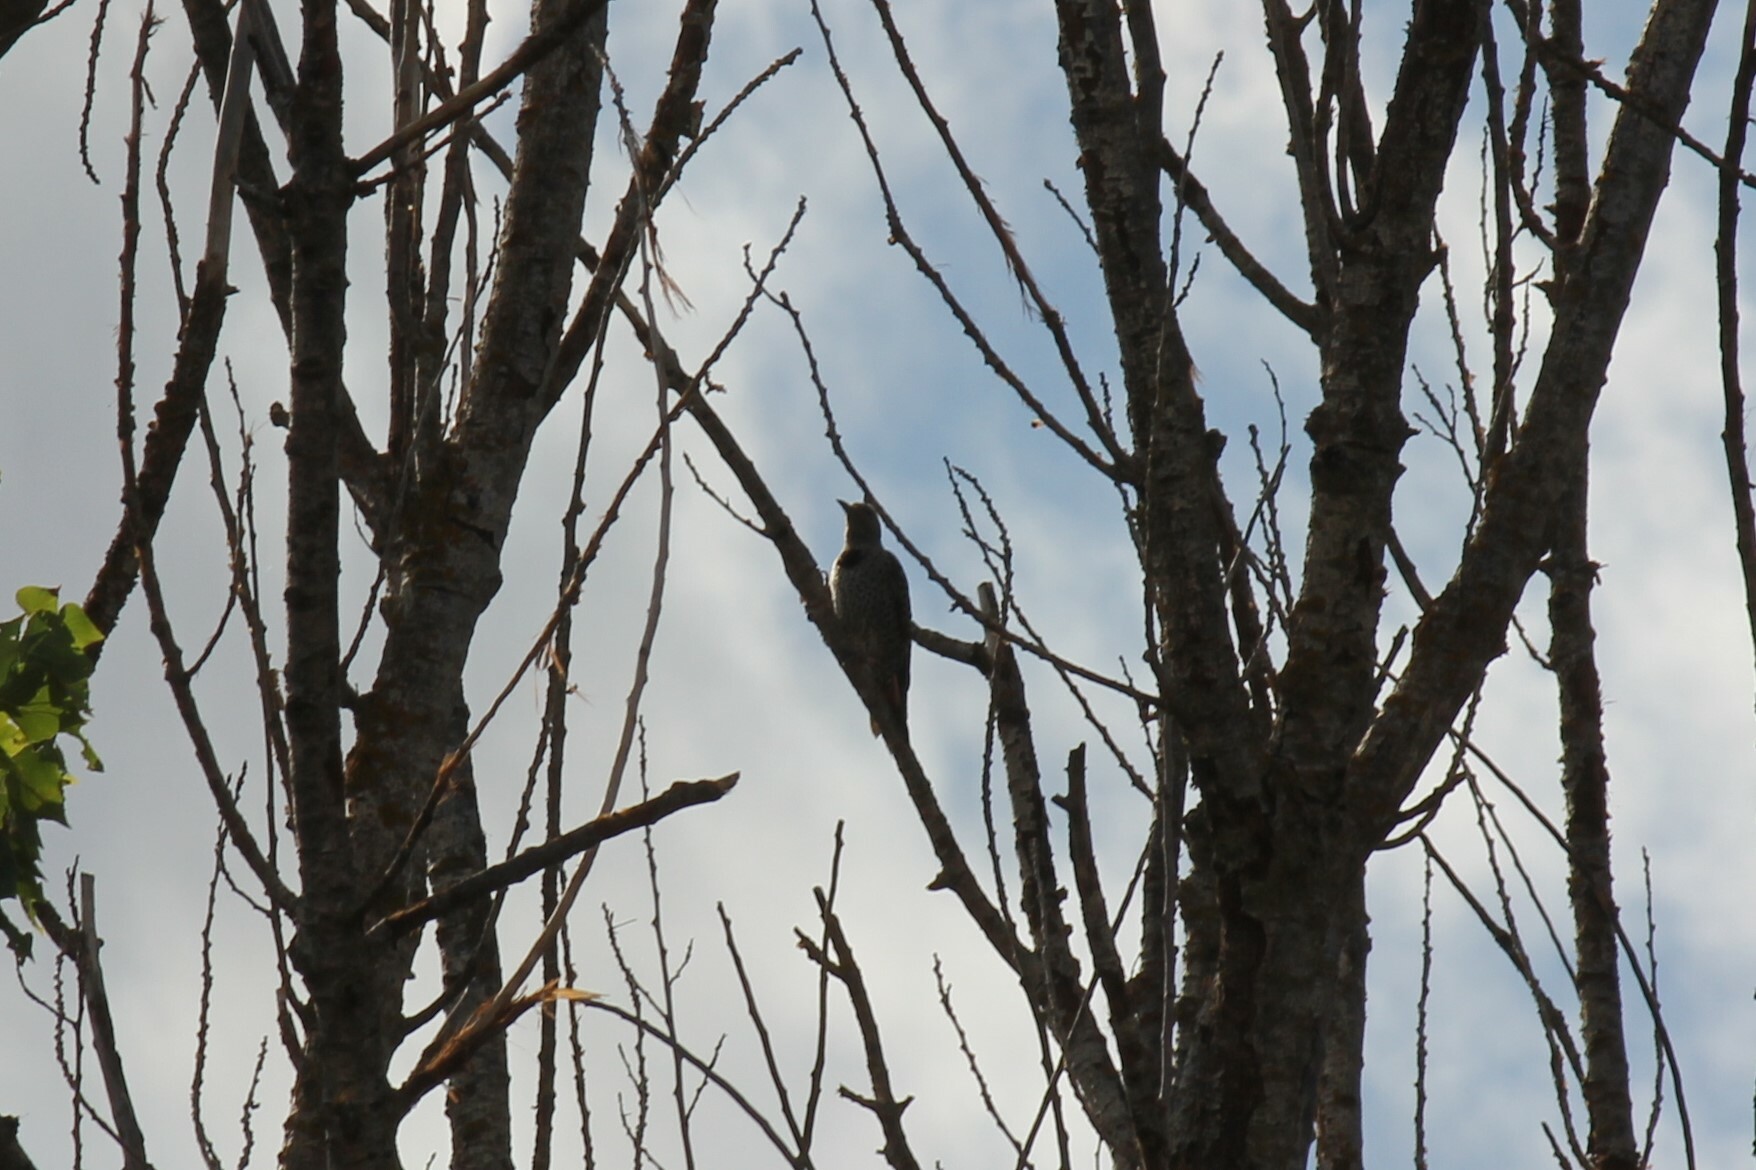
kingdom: Animalia
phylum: Chordata
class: Aves
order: Piciformes
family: Picidae
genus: Colaptes
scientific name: Colaptes auratus
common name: Northern flicker
